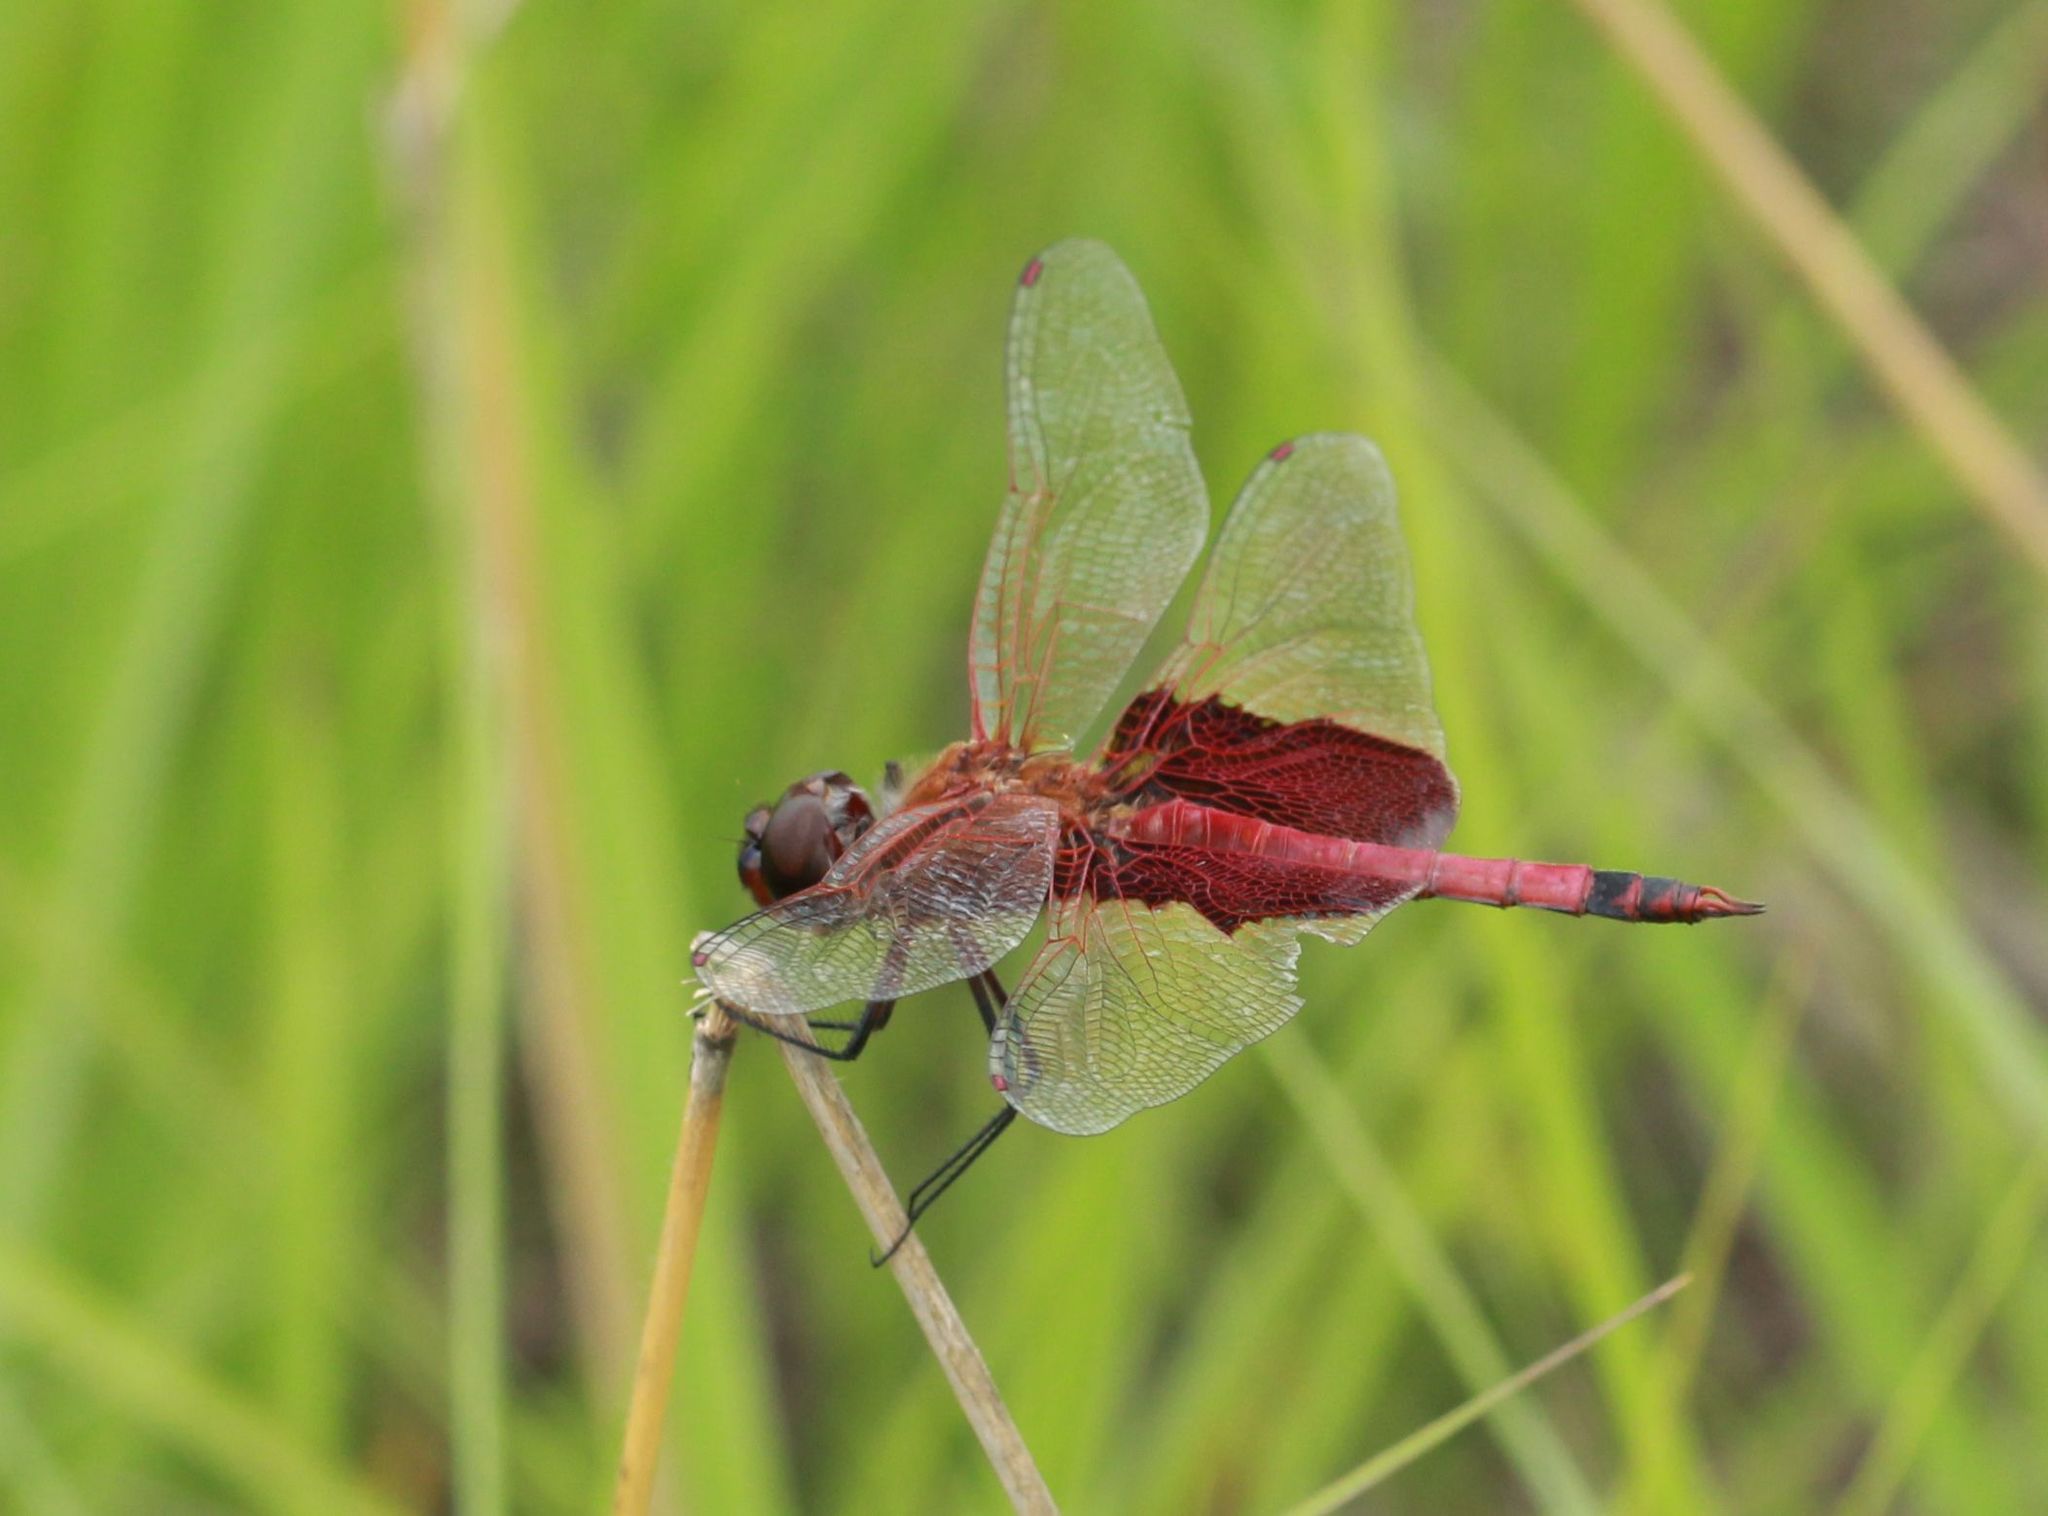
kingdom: Animalia
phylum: Arthropoda
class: Insecta
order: Odonata
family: Libellulidae
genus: Tramea
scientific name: Tramea carolina
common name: Carolina saddlebags
